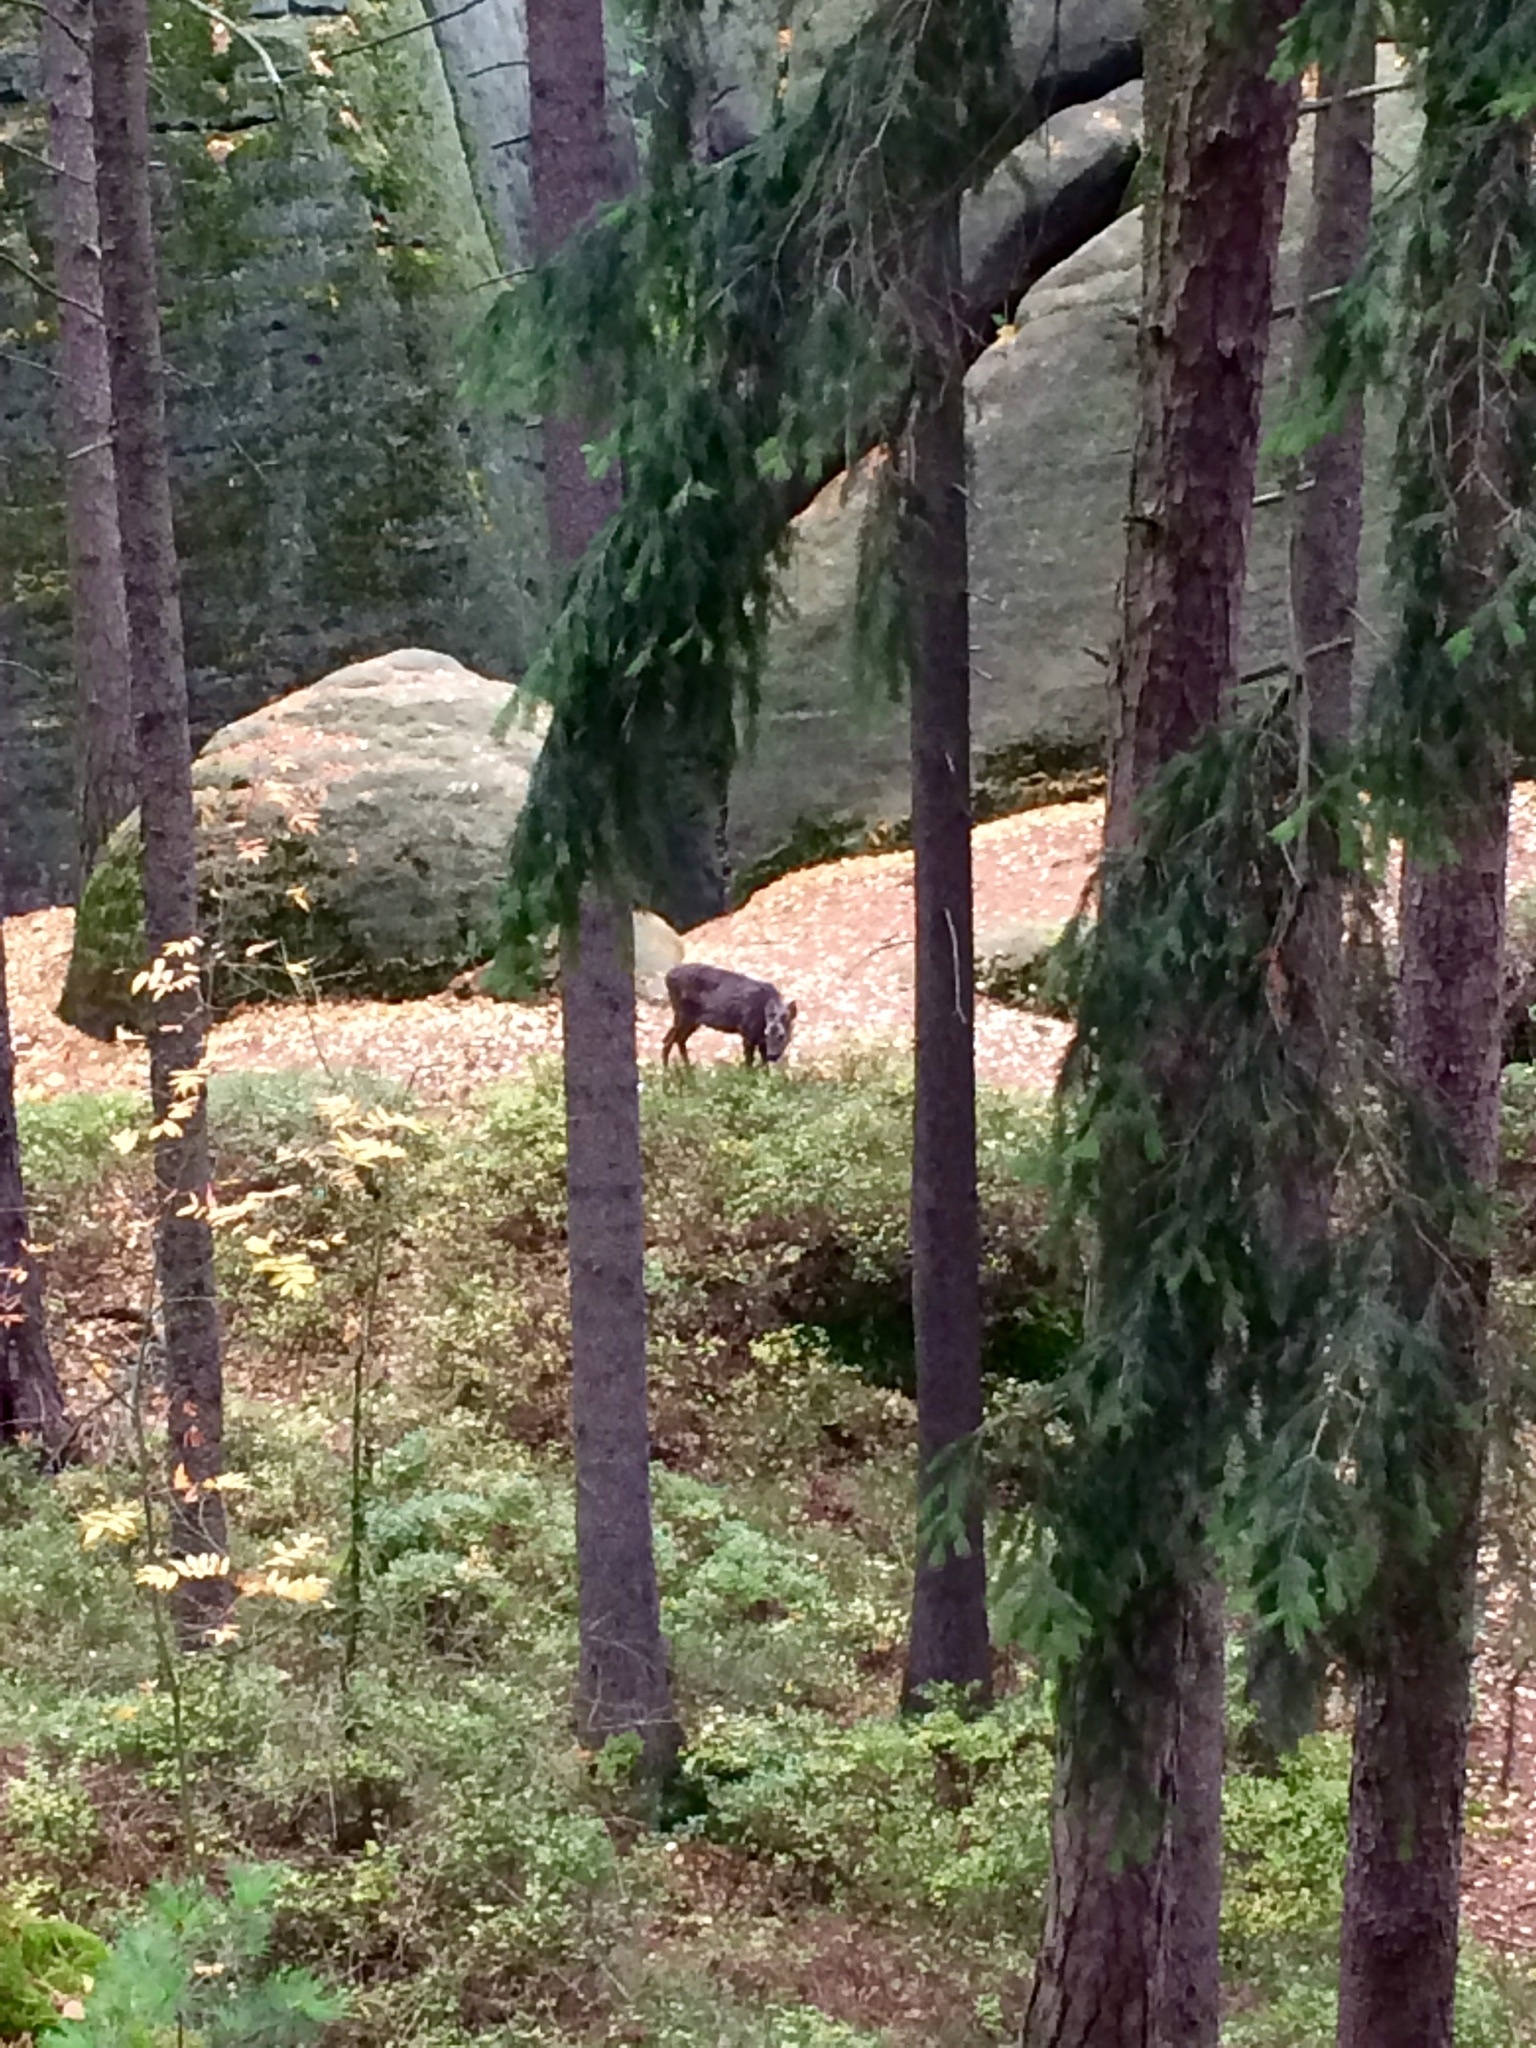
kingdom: Animalia
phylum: Chordata
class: Mammalia
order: Artiodactyla
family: Cervidae
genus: Capreolus
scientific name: Capreolus capreolus
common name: Western roe deer
